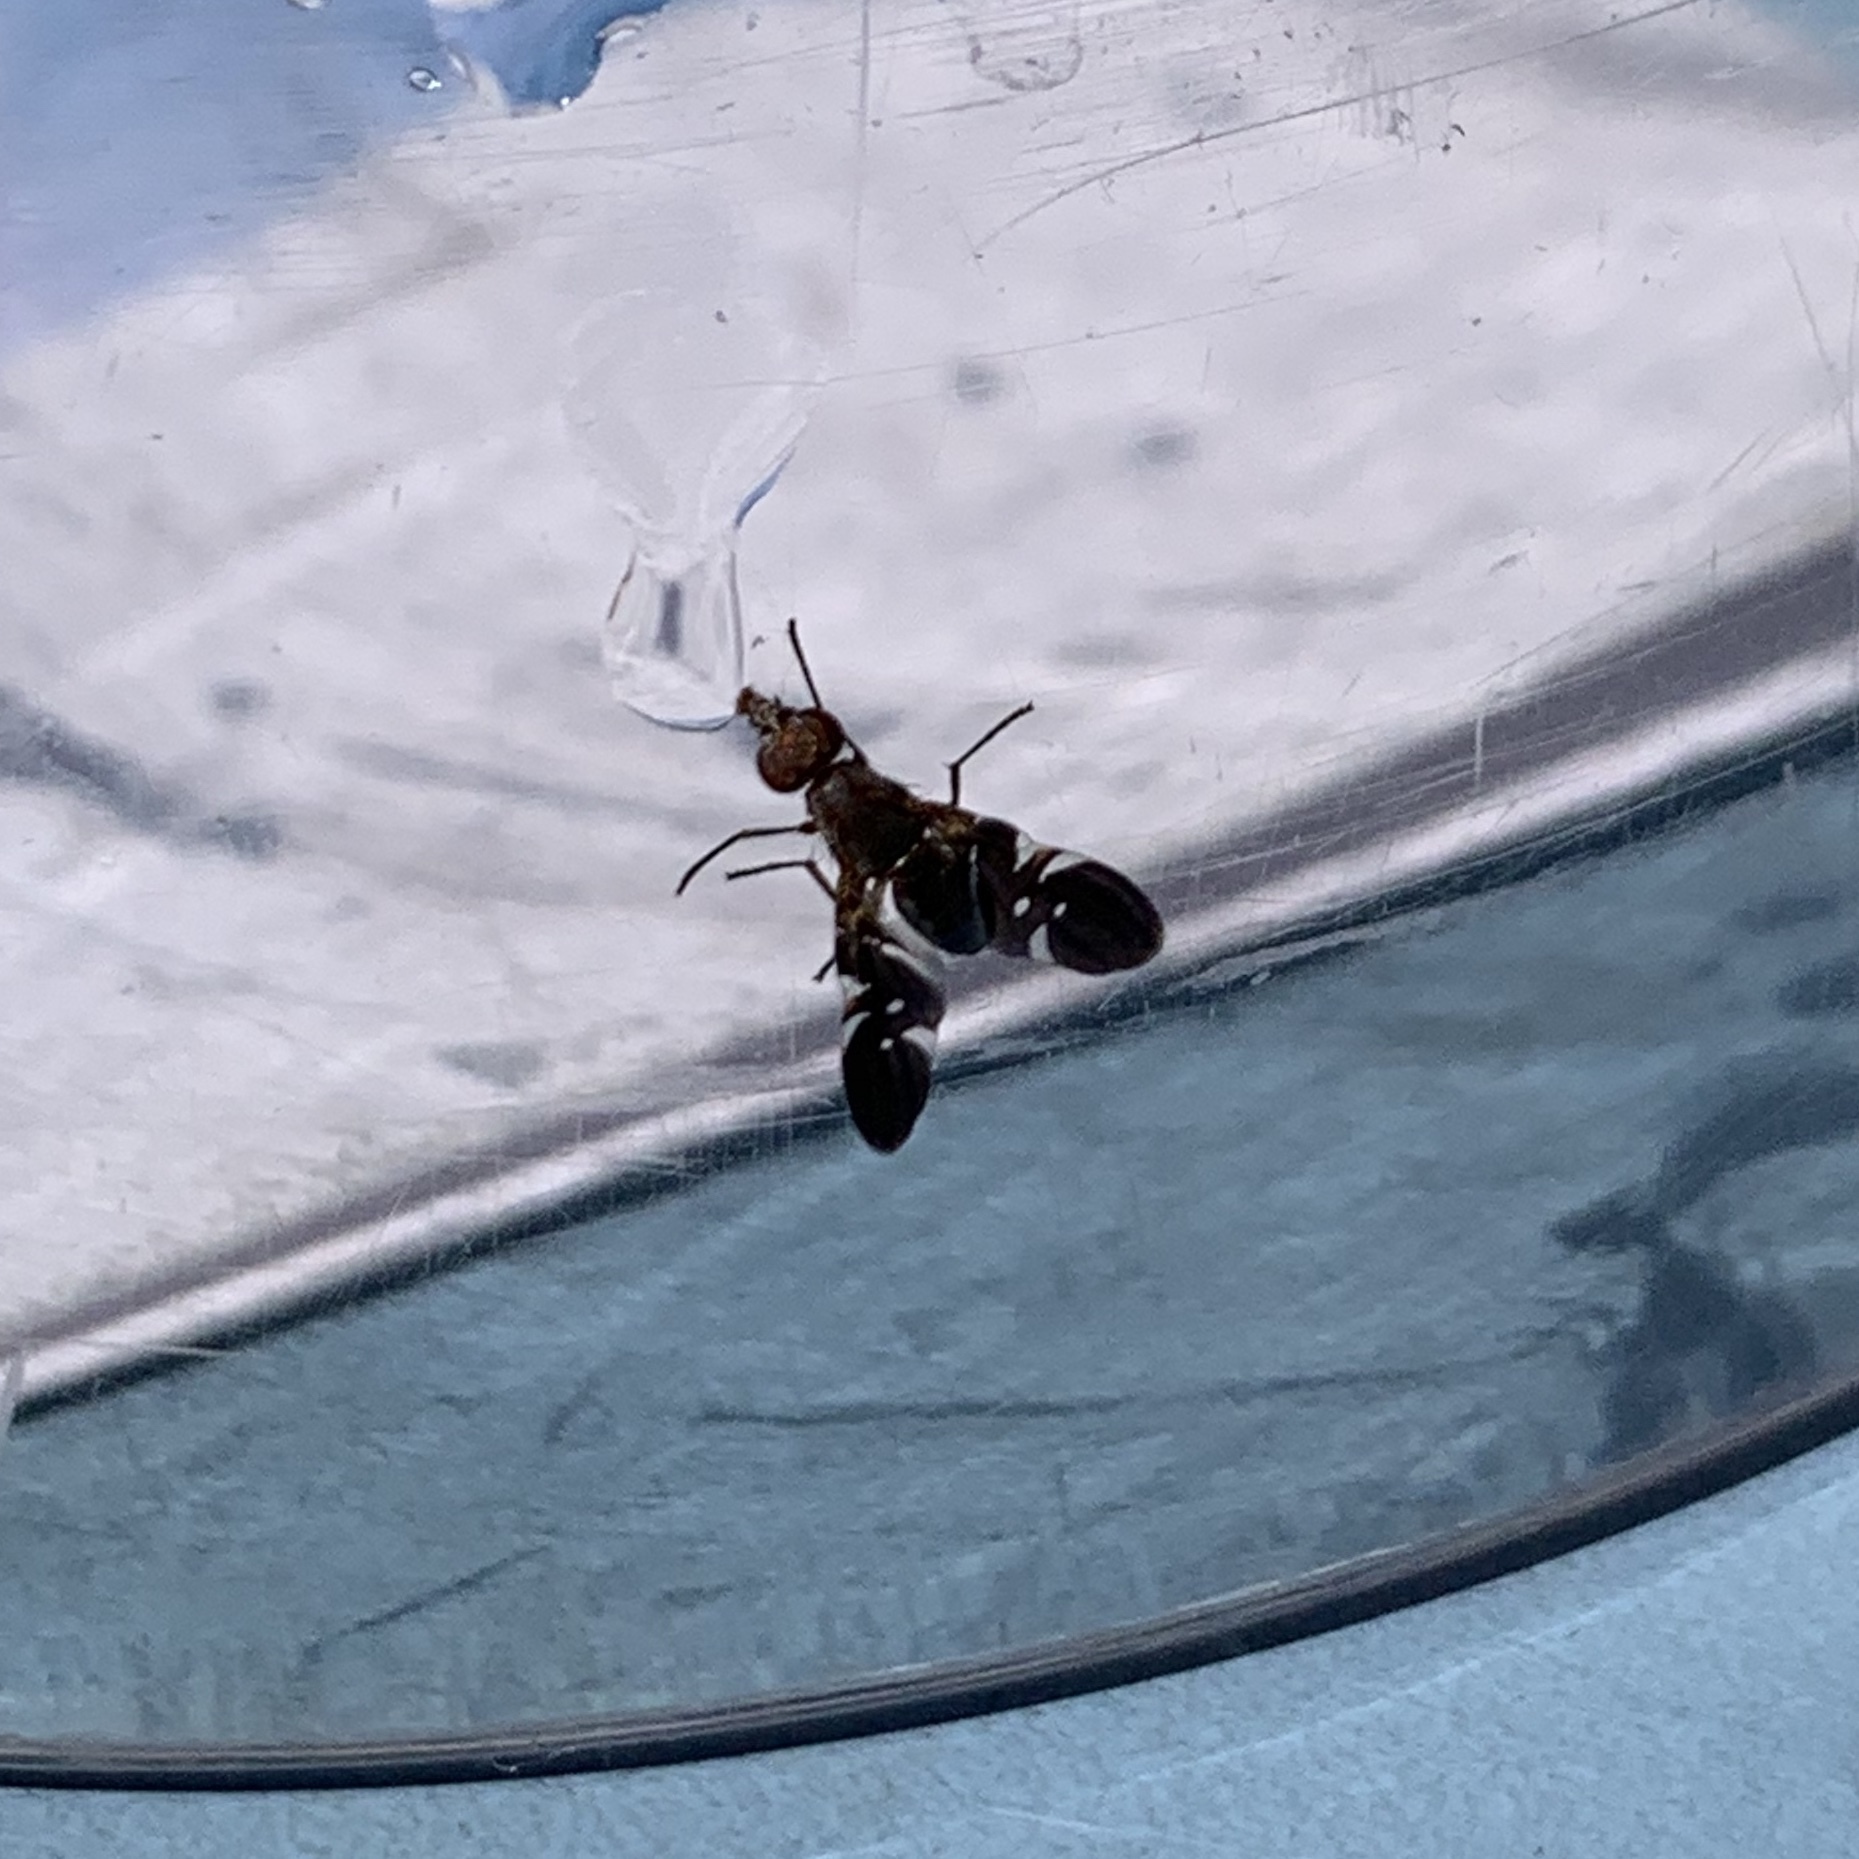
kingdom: Animalia
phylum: Arthropoda
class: Insecta
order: Diptera
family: Ulidiidae
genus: Delphinia
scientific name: Delphinia picta
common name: Common picture-winged fly
